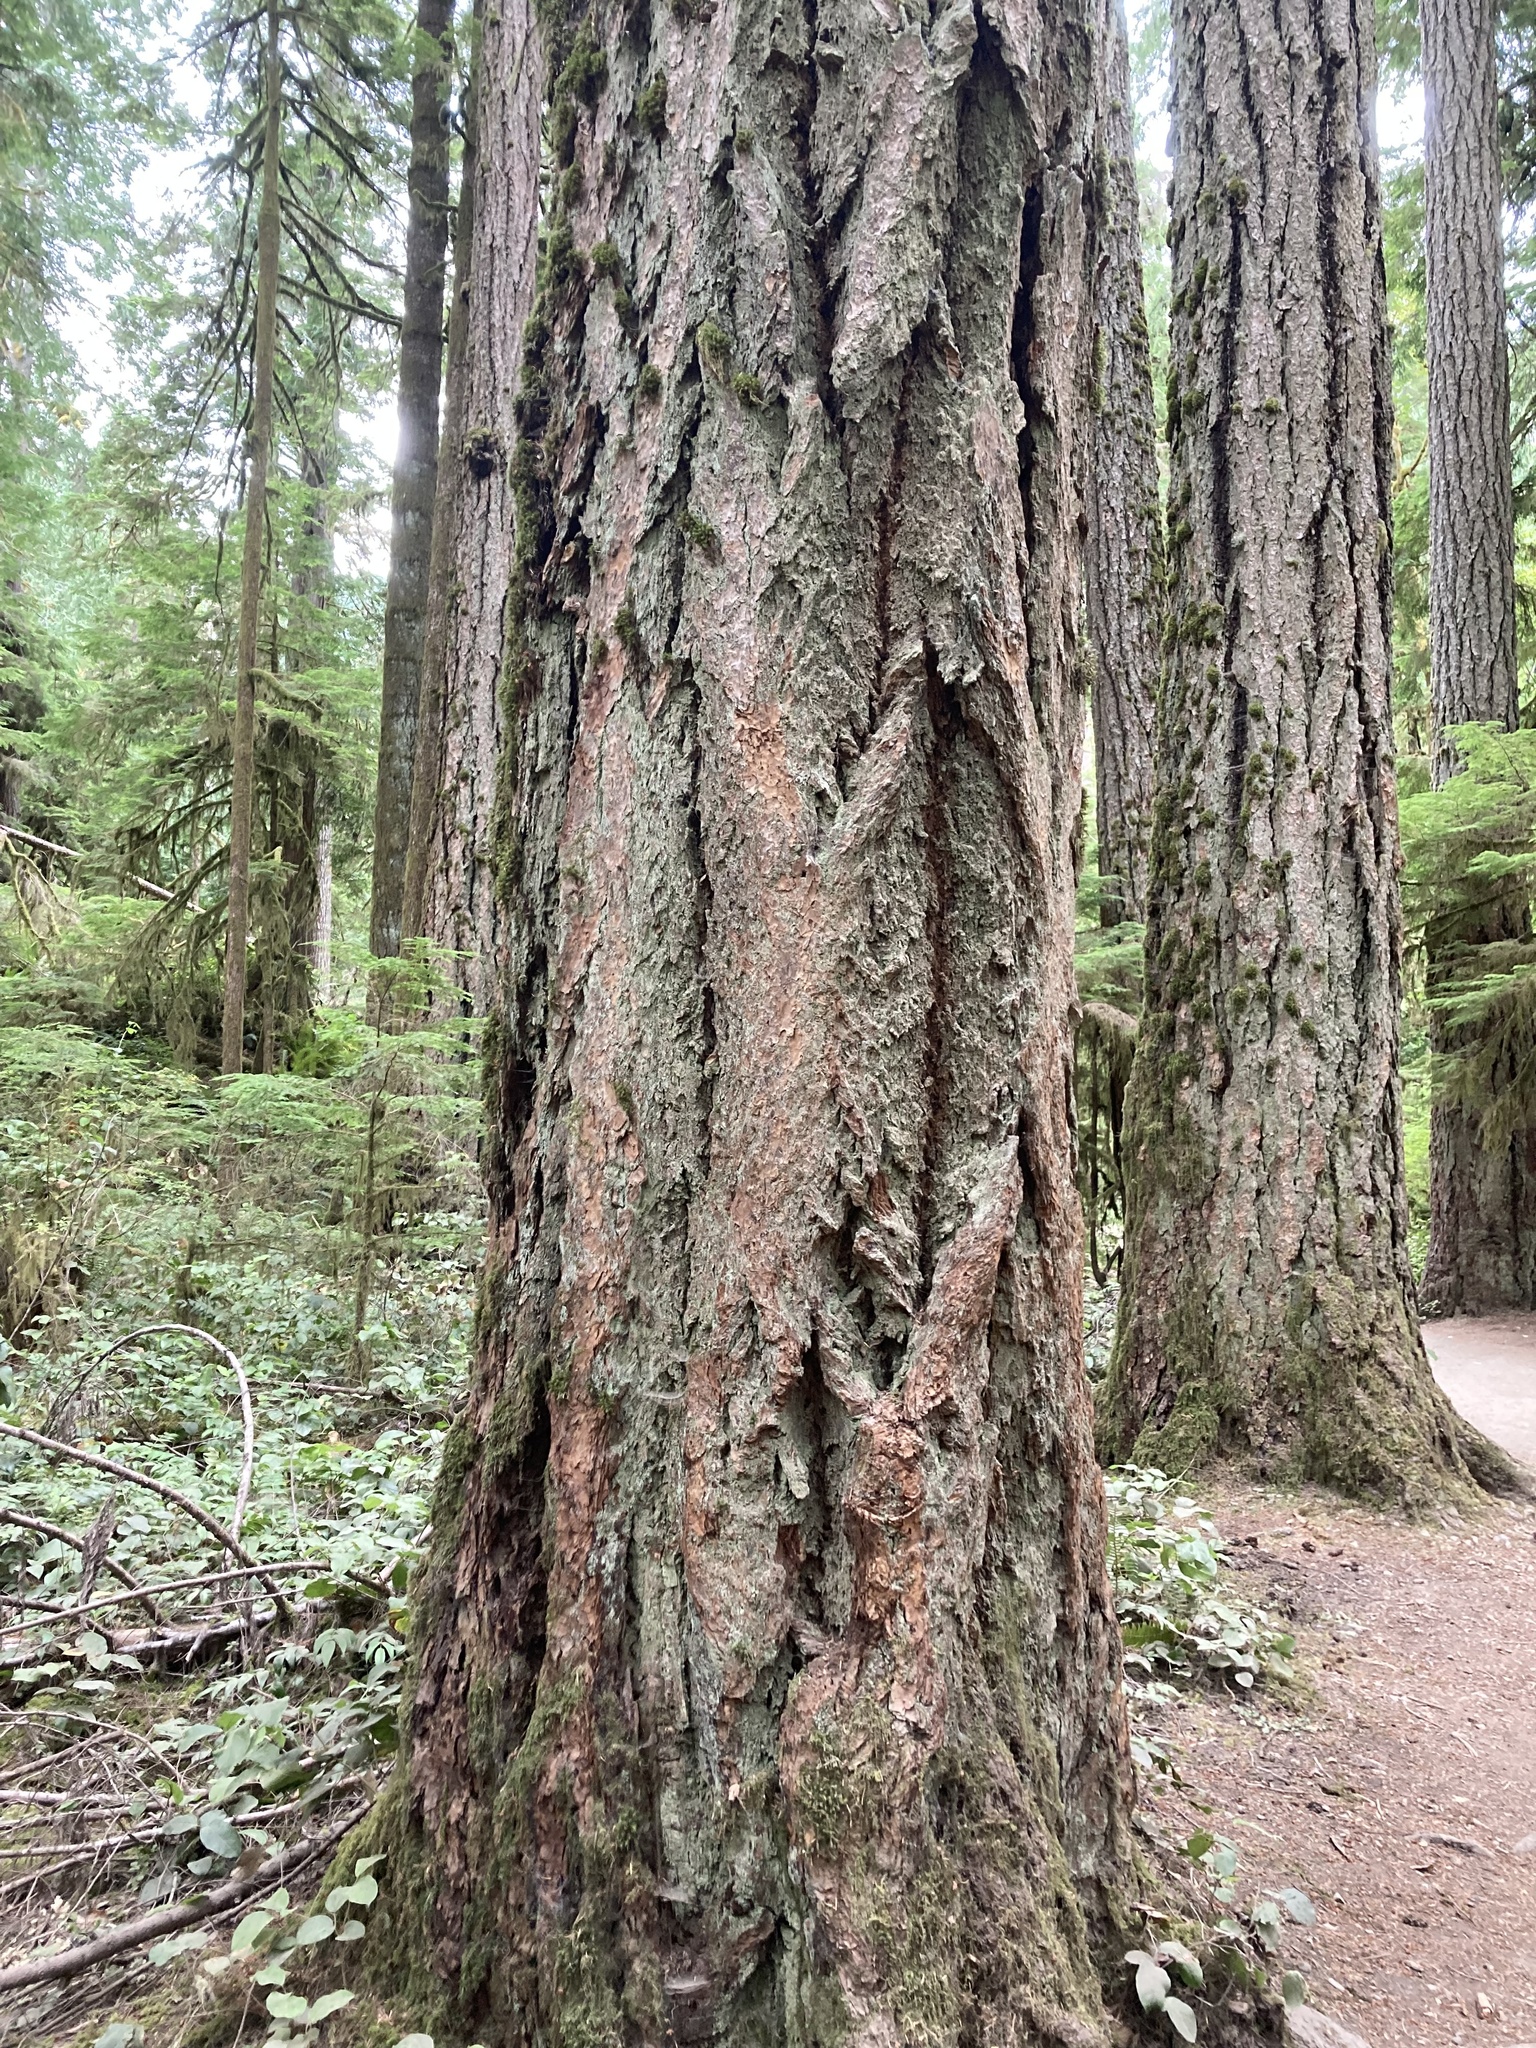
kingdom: Plantae
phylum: Tracheophyta
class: Pinopsida
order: Pinales
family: Pinaceae
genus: Pseudotsuga
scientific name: Pseudotsuga menziesii
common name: Douglas fir
